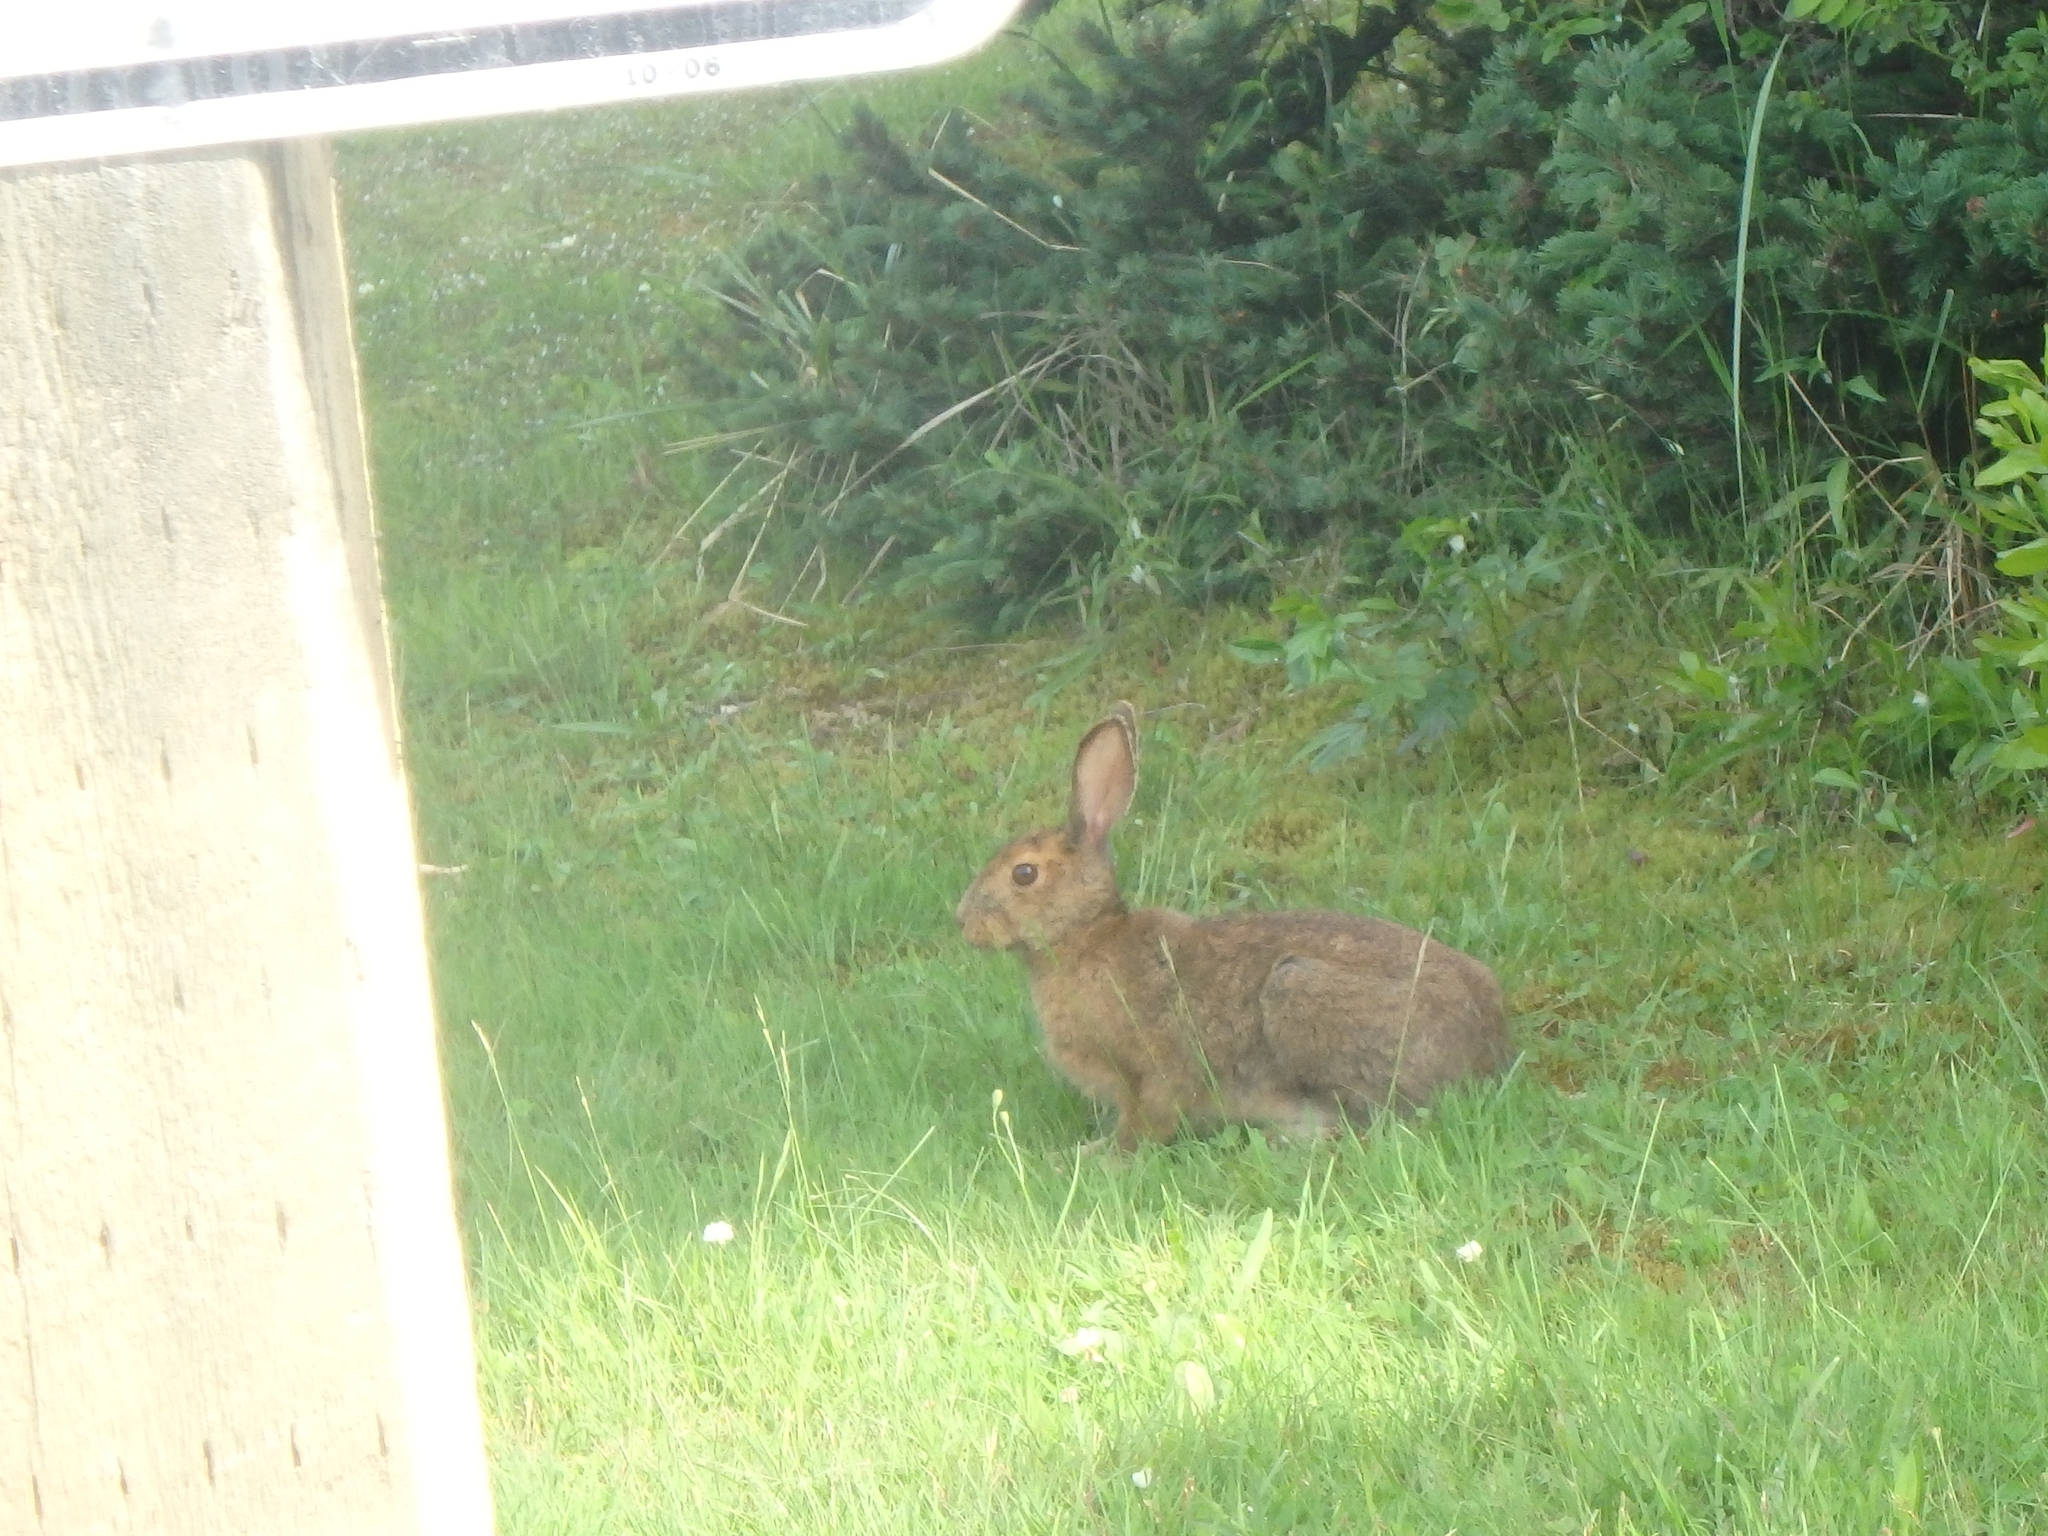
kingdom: Animalia
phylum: Chordata
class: Mammalia
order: Lagomorpha
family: Leporidae
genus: Lepus
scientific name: Lepus americanus
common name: Snowshoe hare
